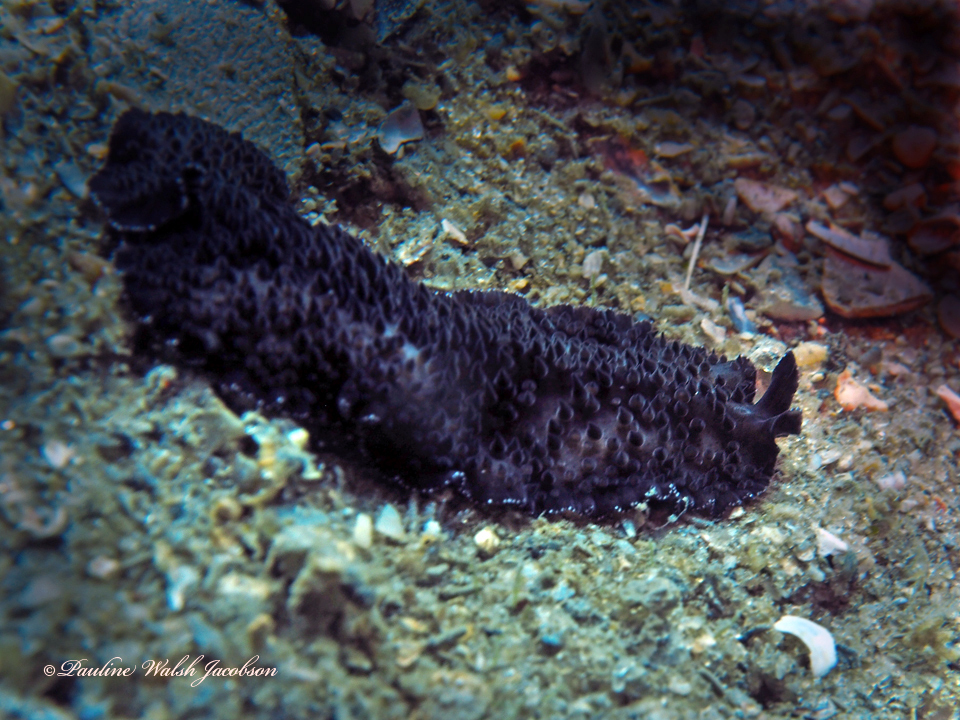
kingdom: Animalia
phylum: Platyhelminthes
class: Turbellaria
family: Pseudocerotidae
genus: Thysanozoon
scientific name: Thysanozoon nigrum
